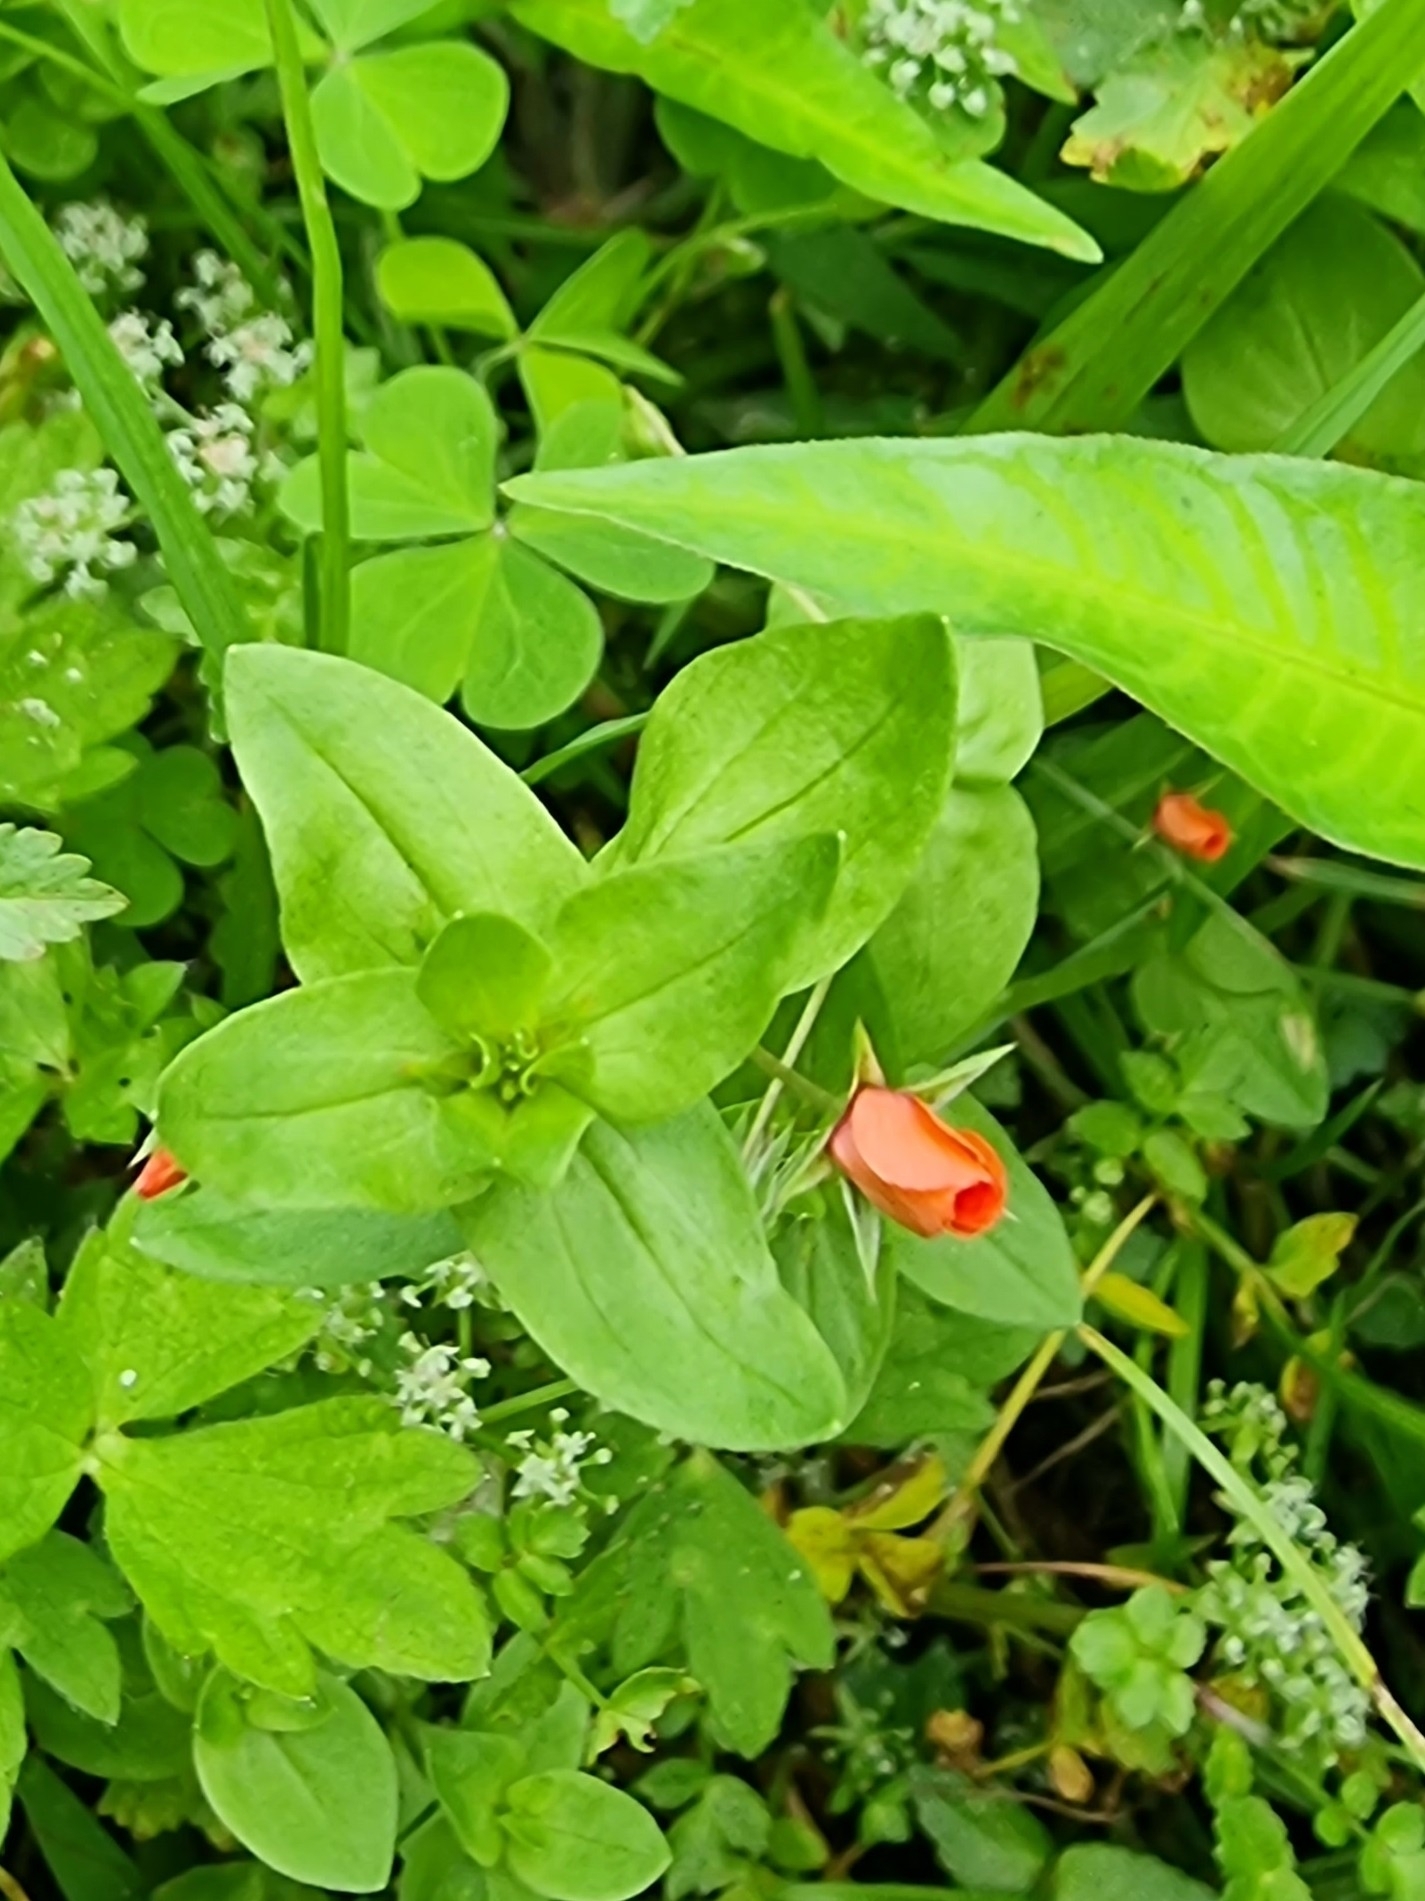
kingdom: Plantae
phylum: Tracheophyta
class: Magnoliopsida
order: Ericales
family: Primulaceae
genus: Lysimachia
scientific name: Lysimachia arvensis
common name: Scarlet pimpernel
